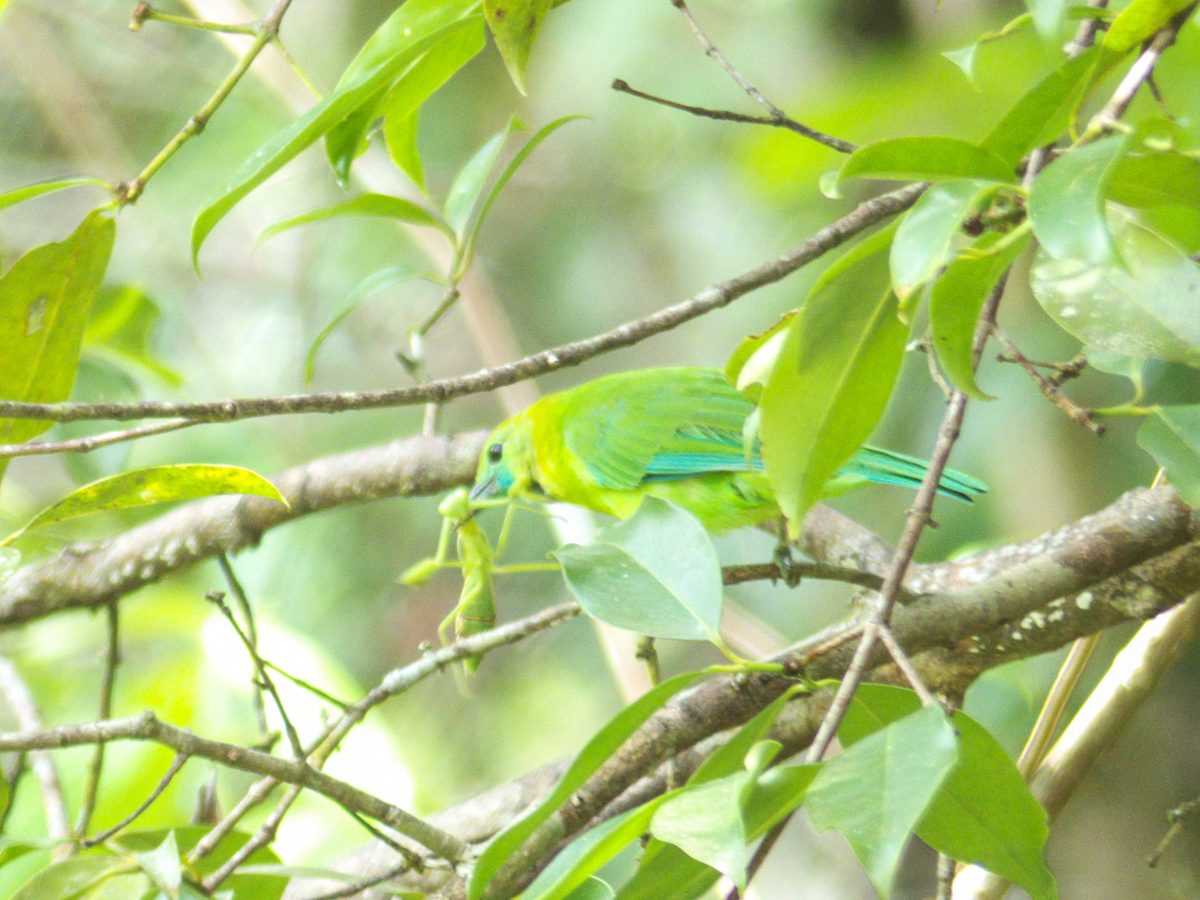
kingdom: Animalia
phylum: Chordata
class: Aves
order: Passeriformes
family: Chloropseidae
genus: Chloropsis
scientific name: Chloropsis moluccensis
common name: Blue-winged leafbird
